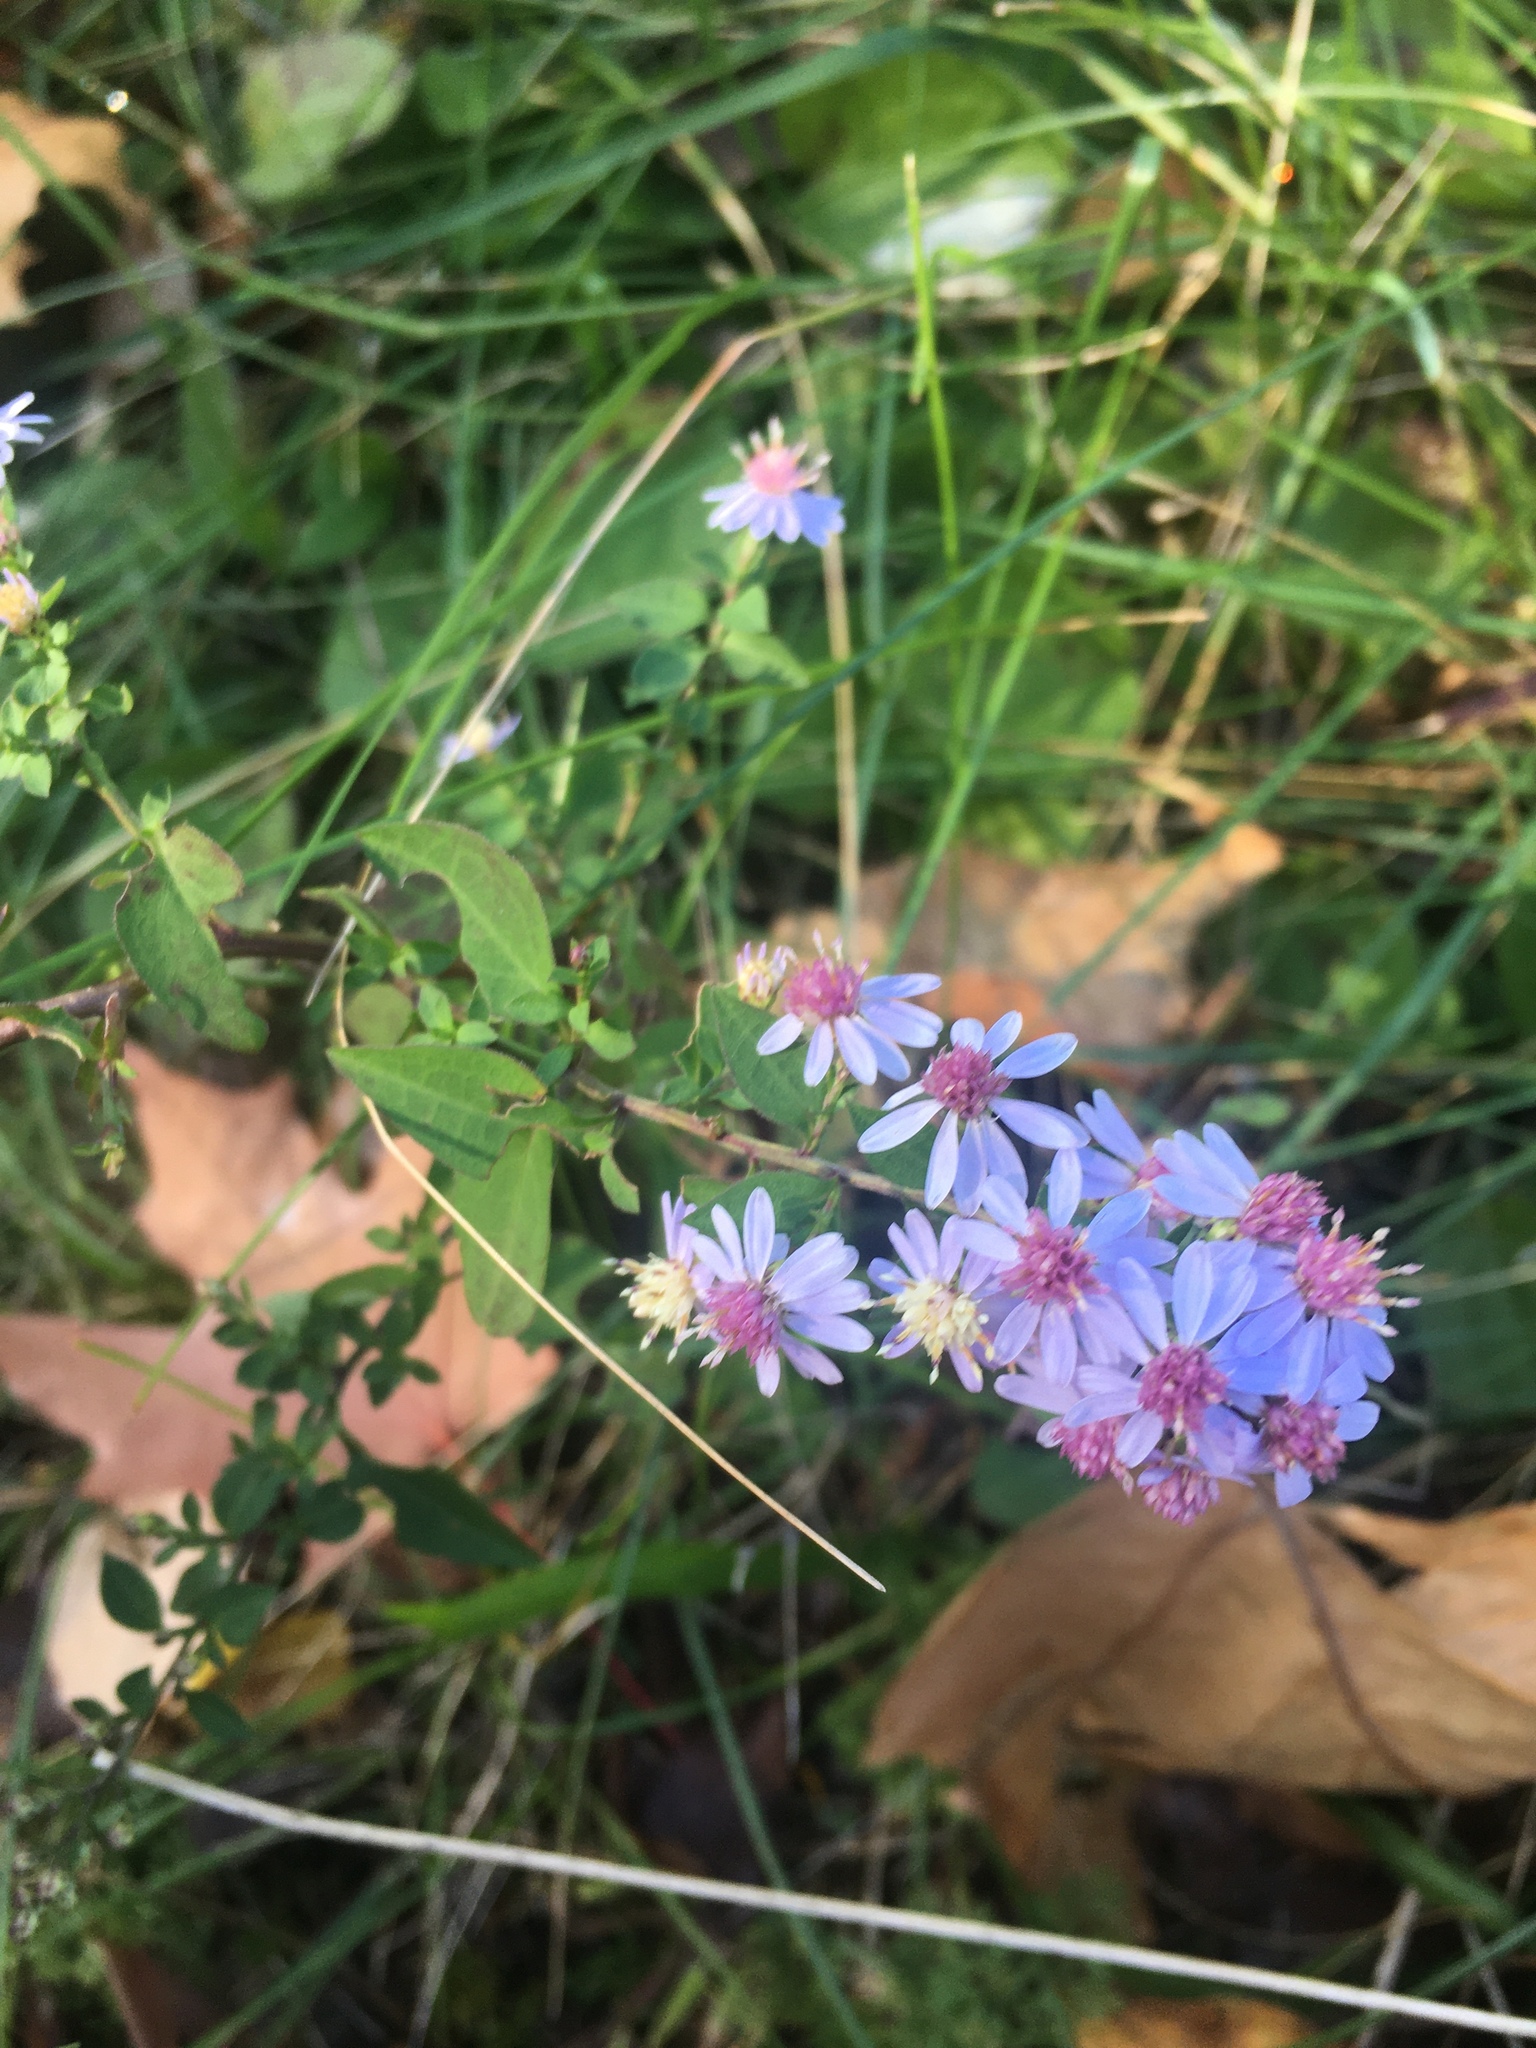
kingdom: Plantae
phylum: Tracheophyta
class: Magnoliopsida
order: Asterales
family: Asteraceae
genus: Symphyotrichum
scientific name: Symphyotrichum cordifolium
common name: Beeweed
